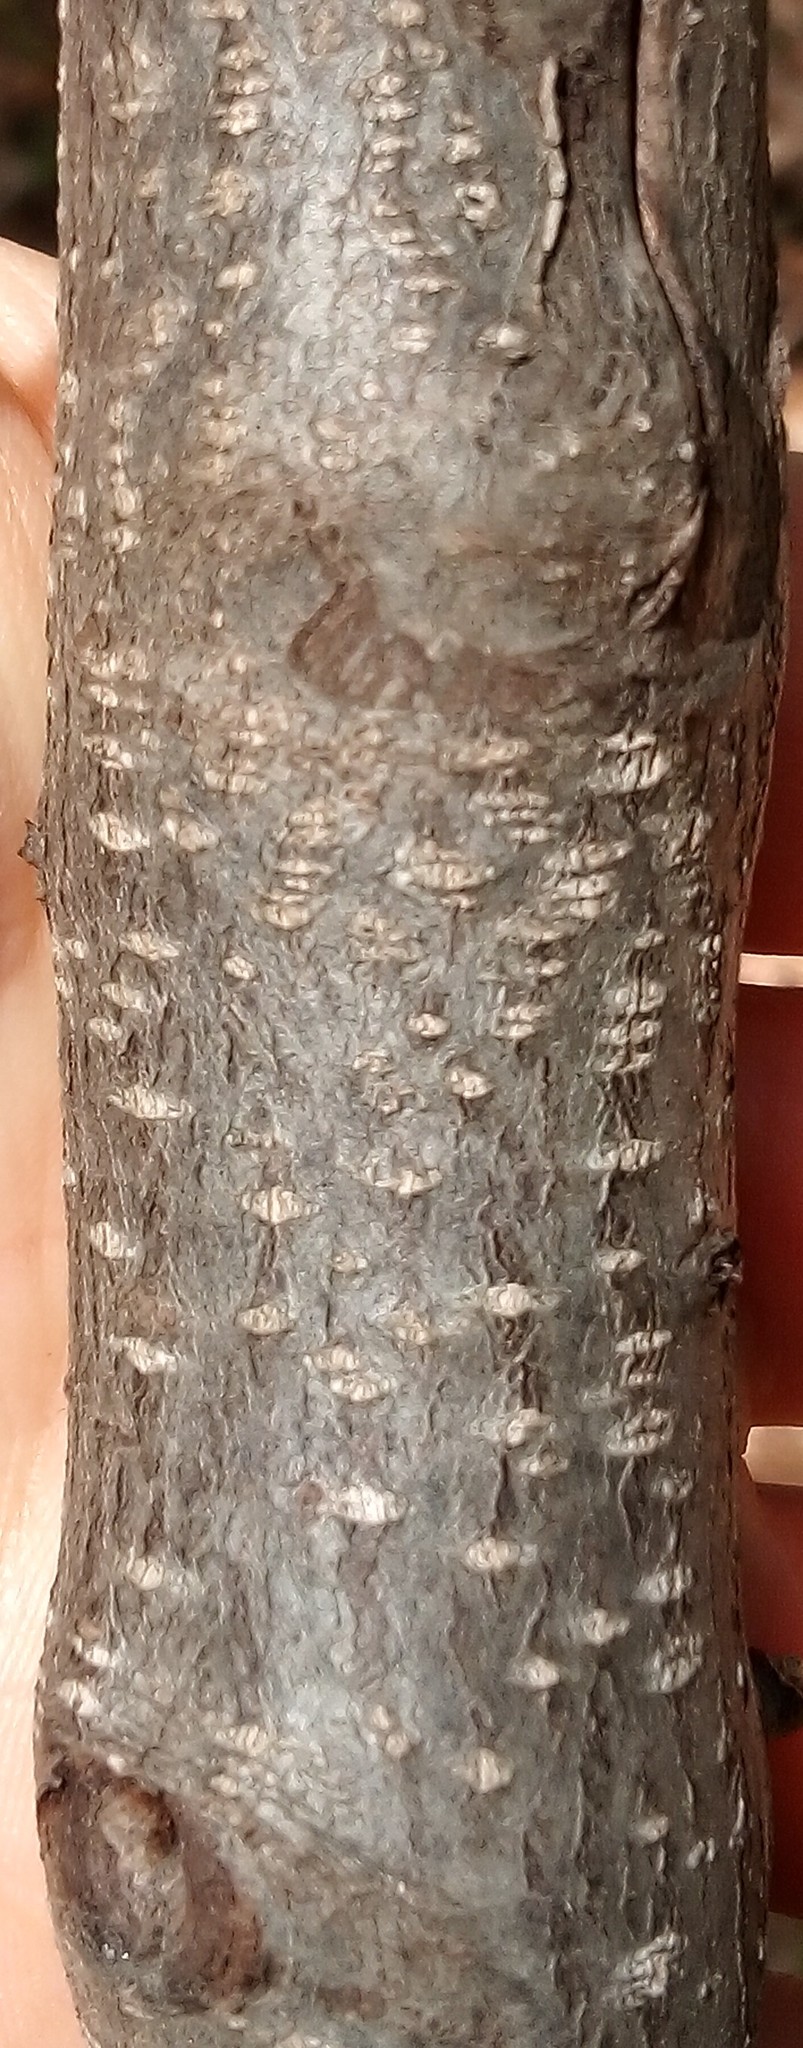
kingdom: Plantae
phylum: Tracheophyta
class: Magnoliopsida
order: Rosales
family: Rhamnaceae
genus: Frangula
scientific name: Frangula alnus
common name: Alder buckthorn
